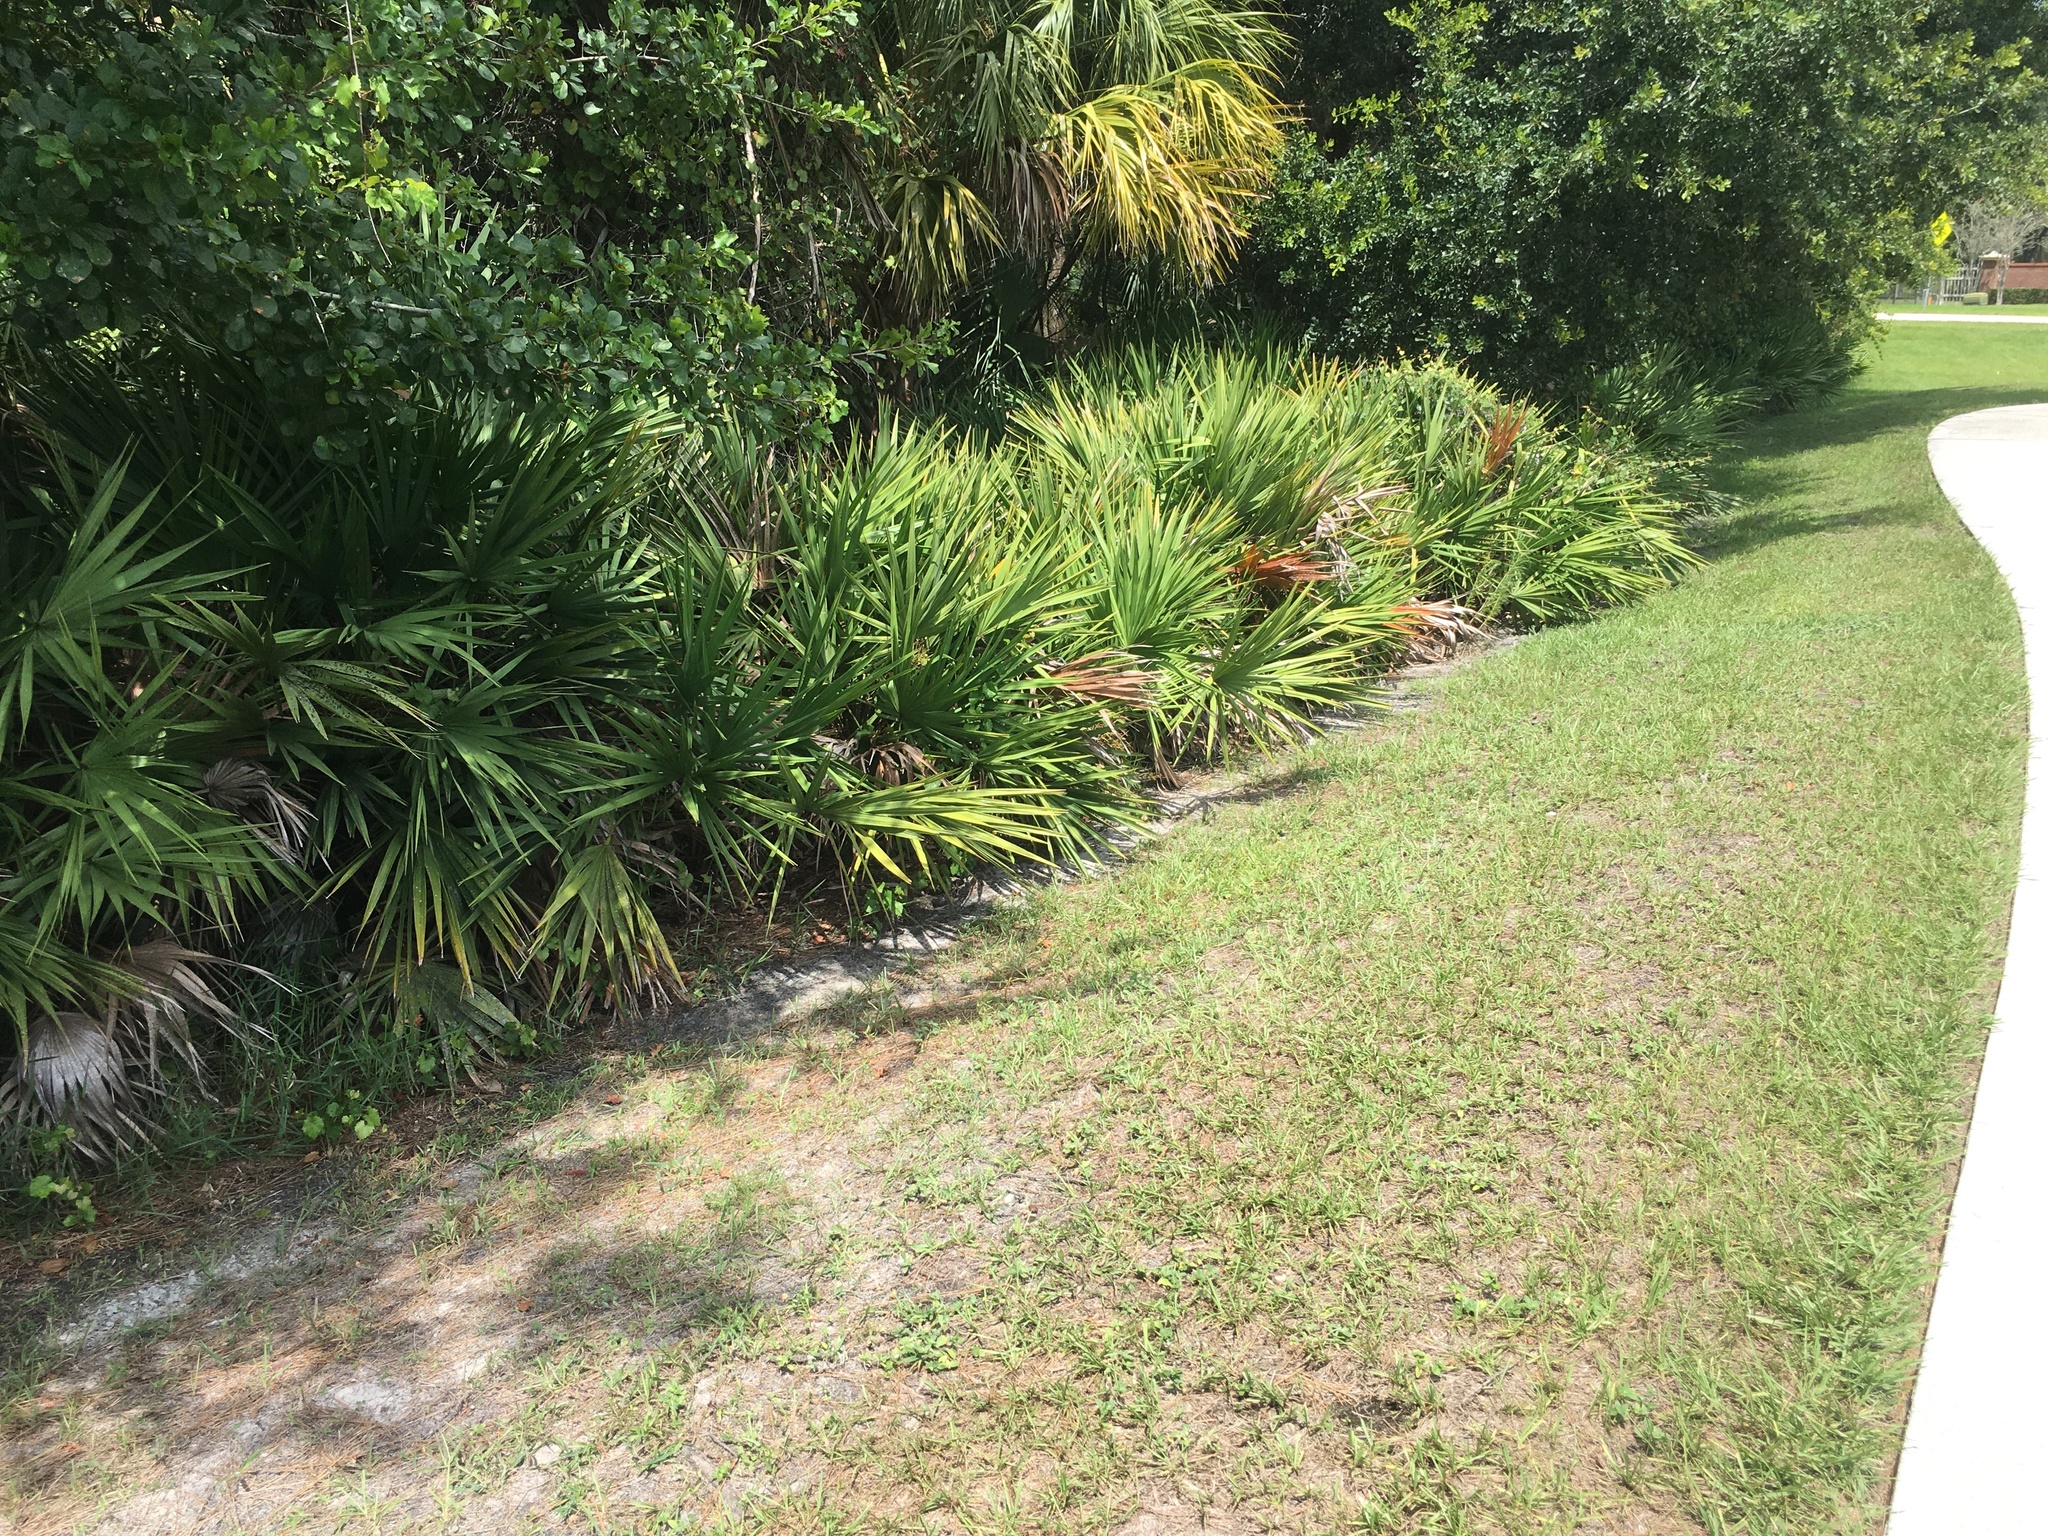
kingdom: Plantae
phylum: Tracheophyta
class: Liliopsida
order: Arecales
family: Arecaceae
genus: Serenoa
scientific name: Serenoa repens
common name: Saw-palmetto
